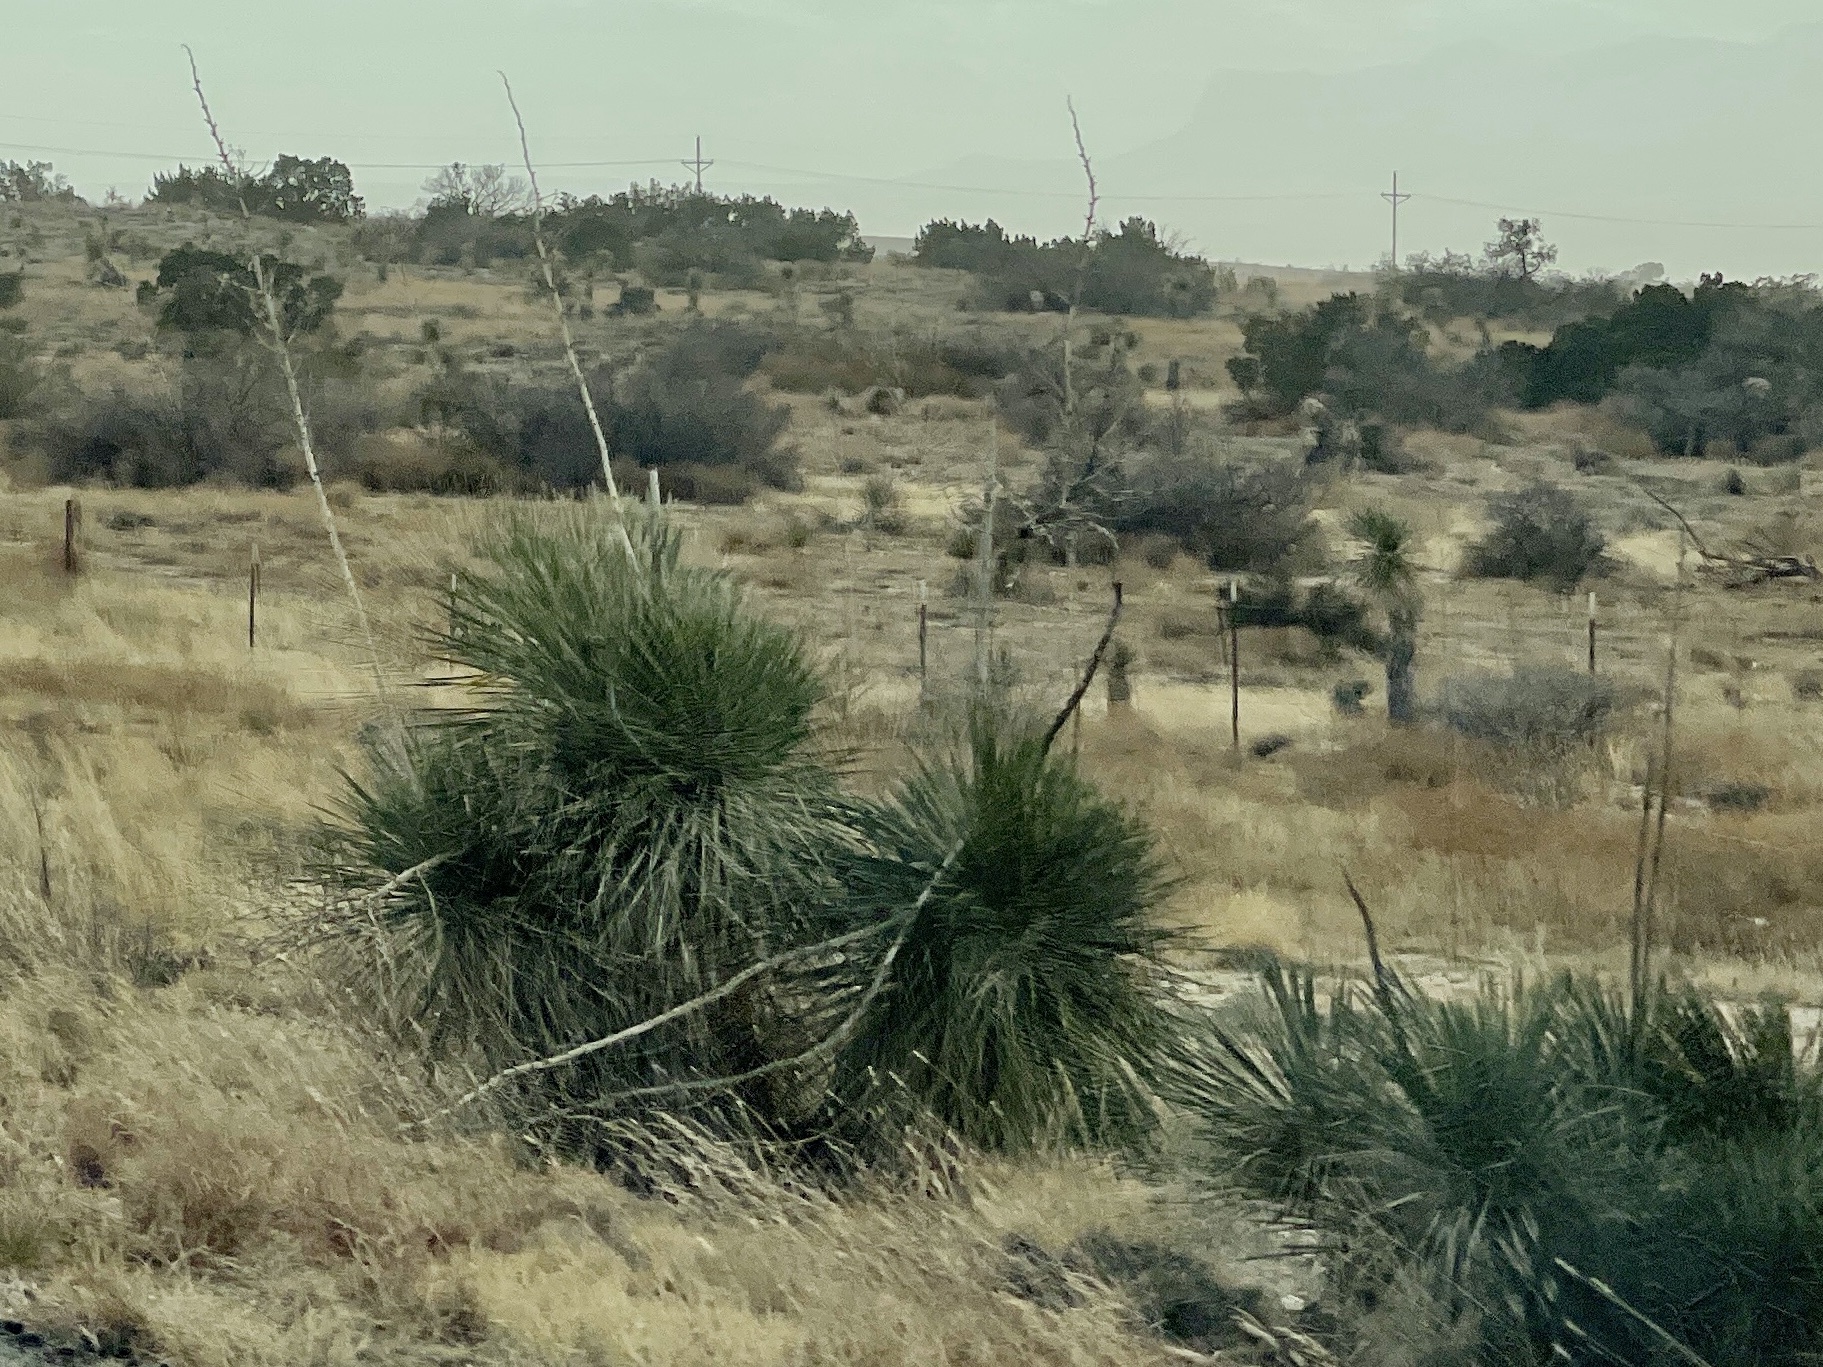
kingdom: Plantae
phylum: Tracheophyta
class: Liliopsida
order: Asparagales
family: Asparagaceae
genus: Yucca
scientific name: Yucca elata
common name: Palmella
